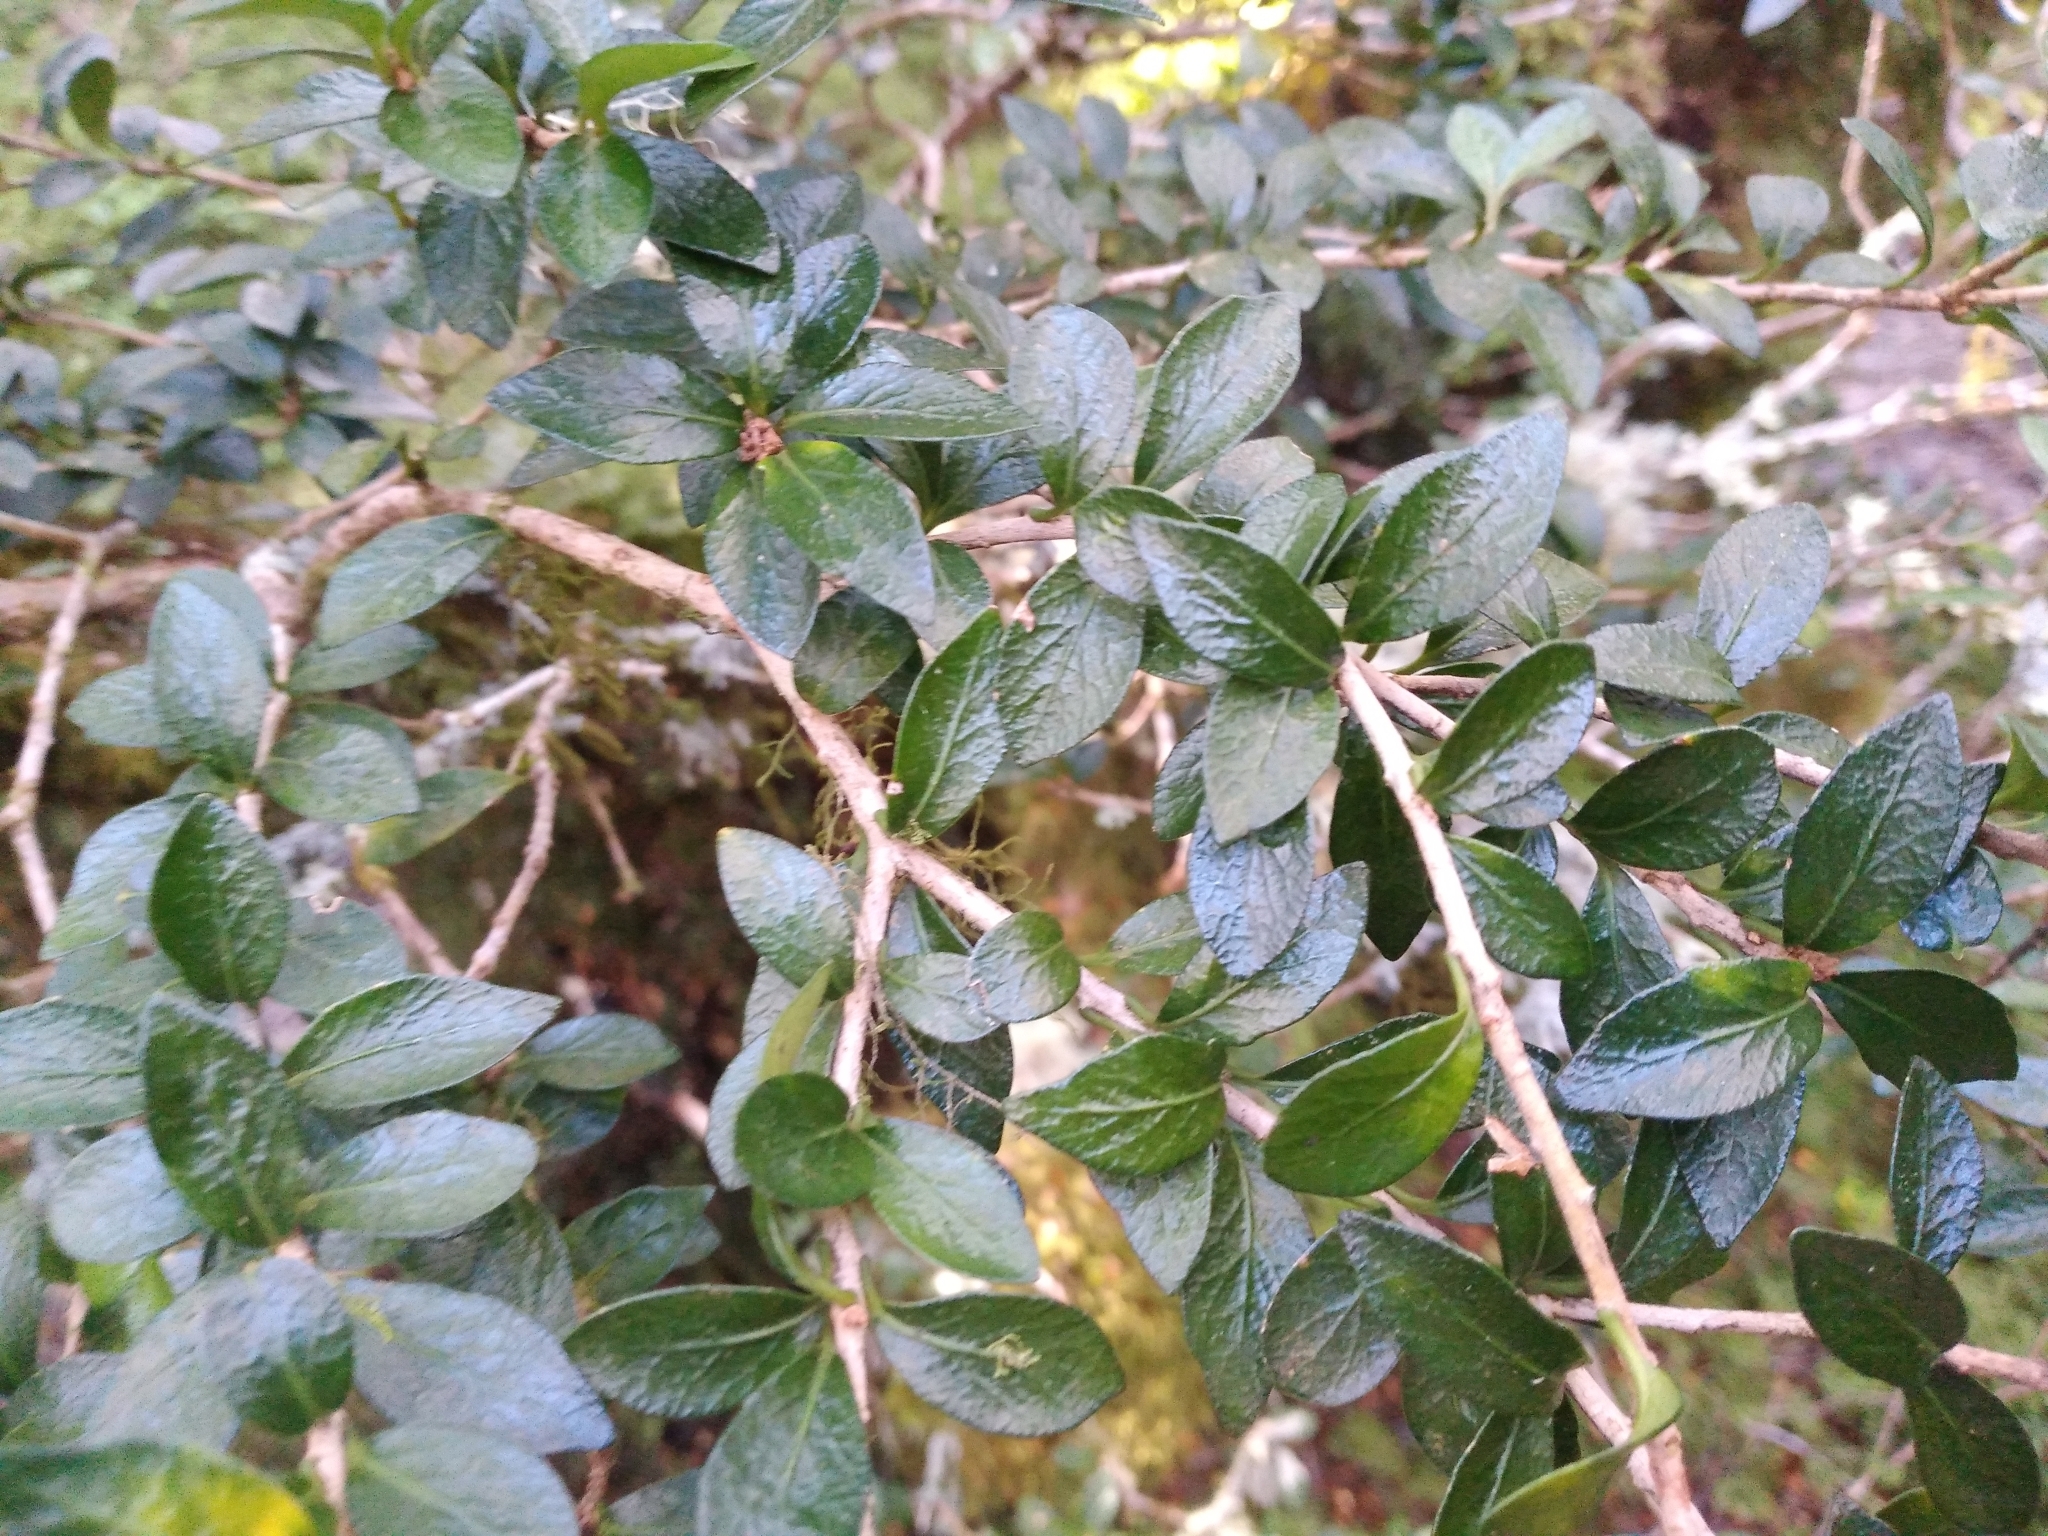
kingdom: Plantae
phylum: Tracheophyta
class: Magnoliopsida
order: Apiales
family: Pittosporaceae
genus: Pittosporum
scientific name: Pittosporum rigidum
